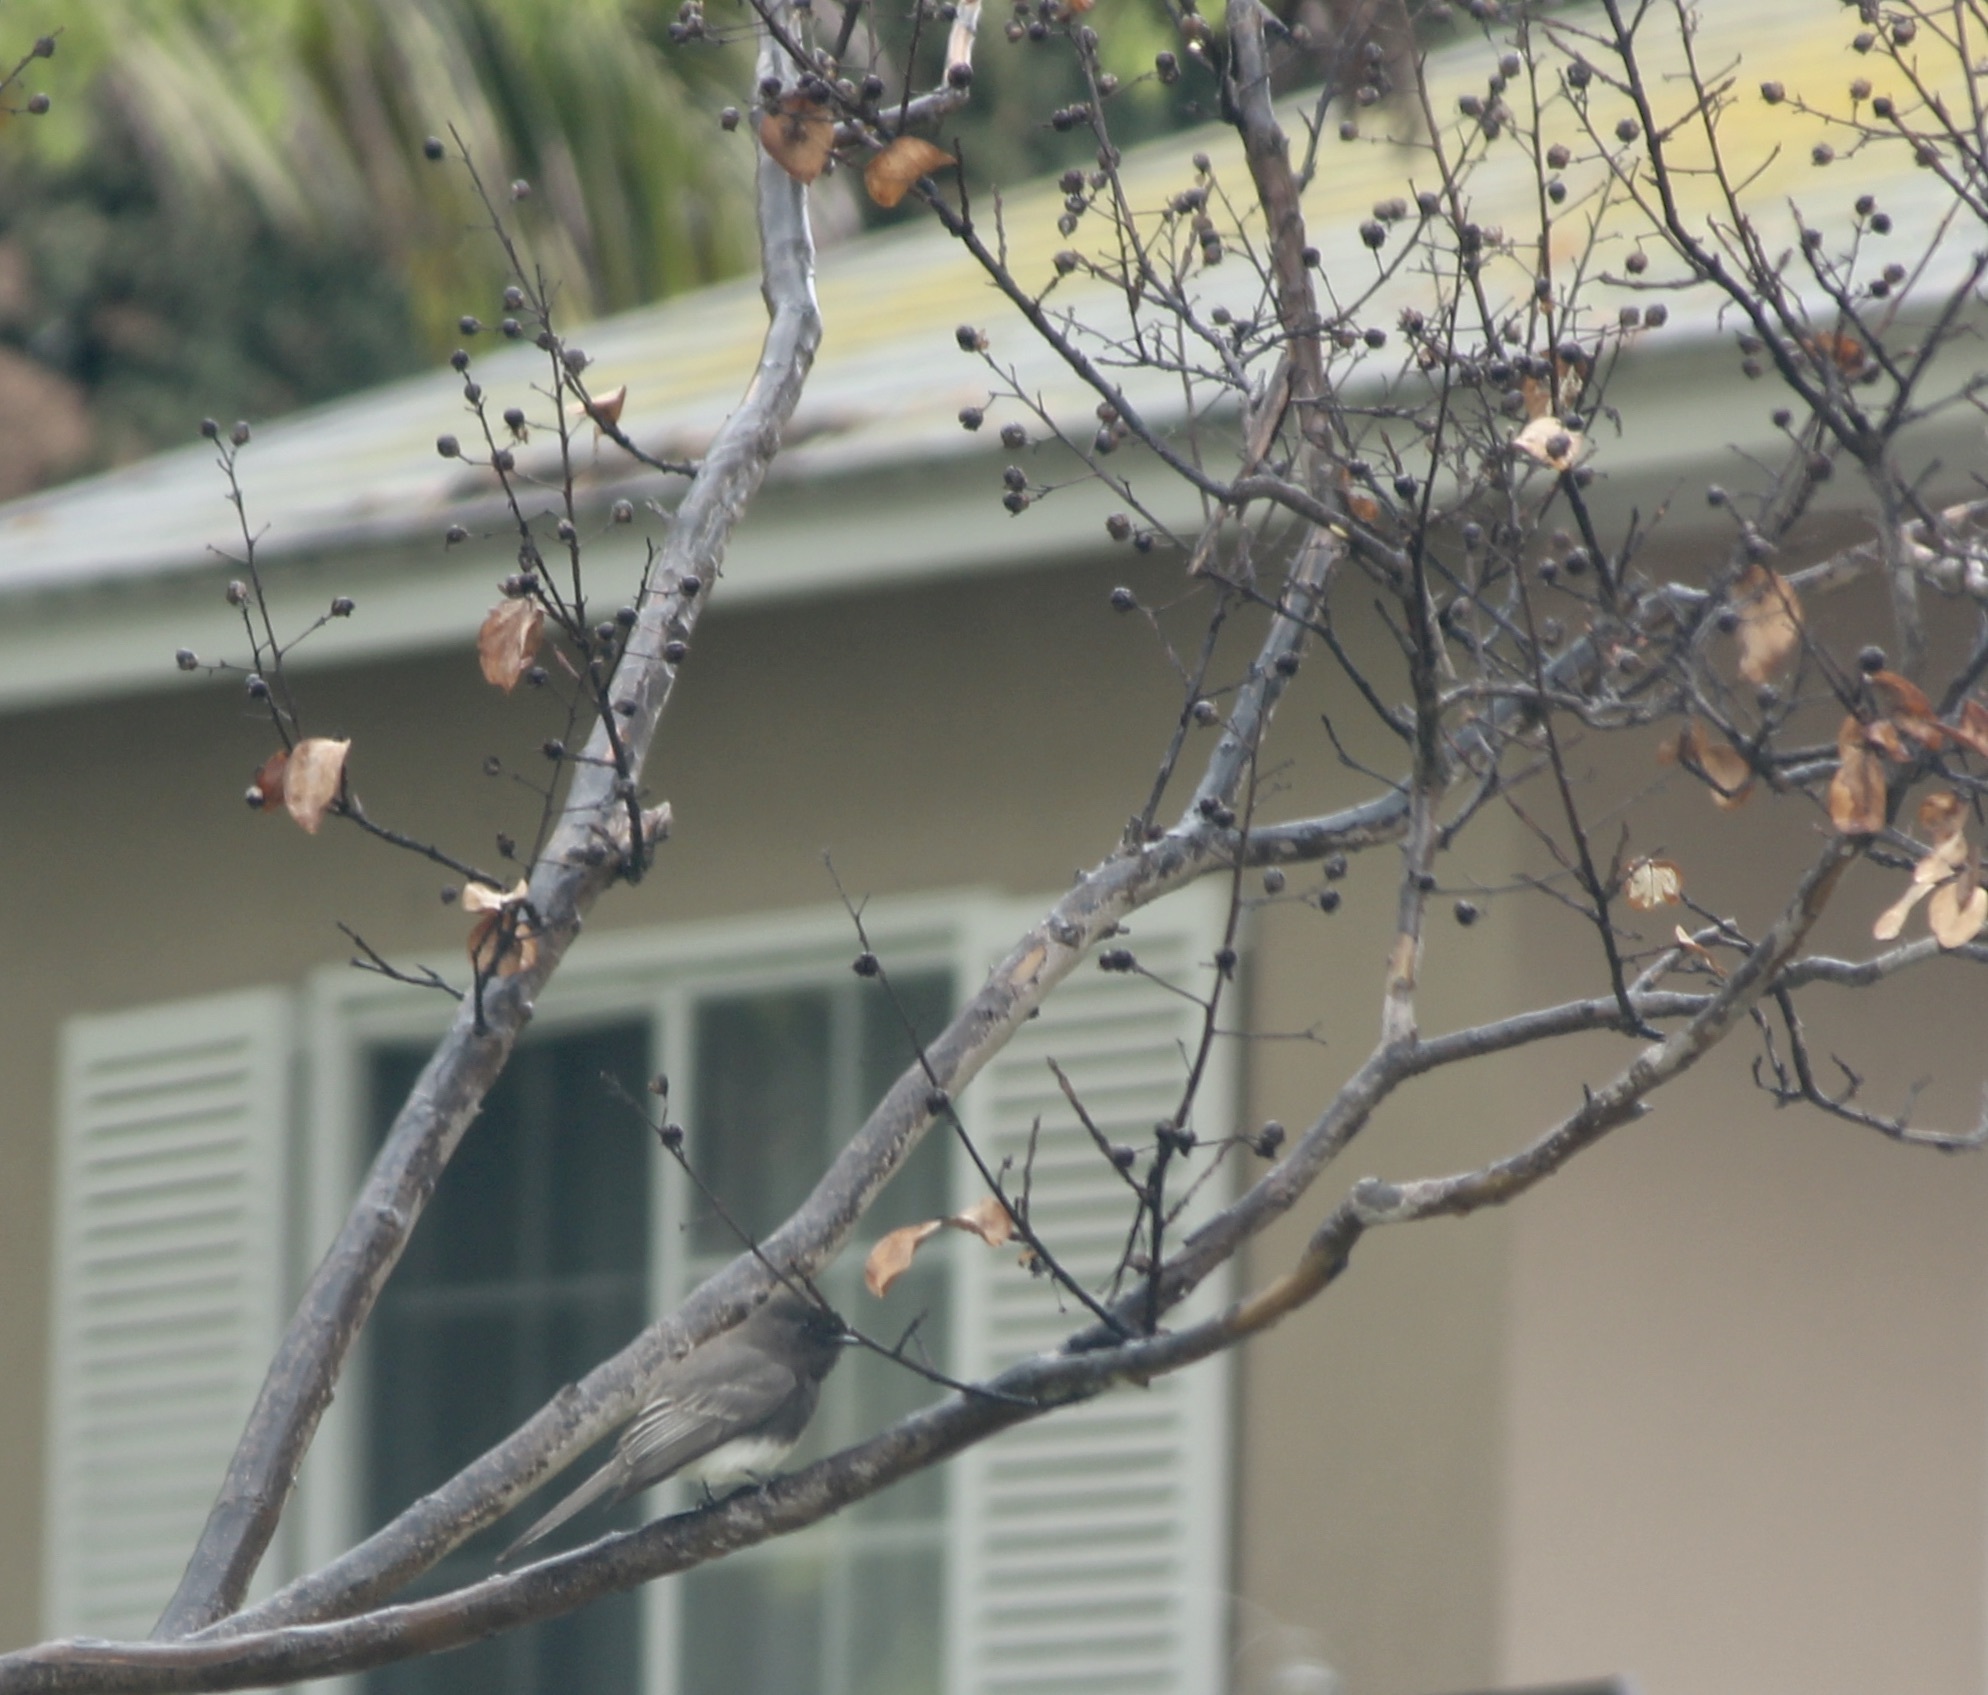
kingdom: Animalia
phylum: Chordata
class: Aves
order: Passeriformes
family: Tyrannidae
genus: Sayornis
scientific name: Sayornis nigricans
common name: Black phoebe
